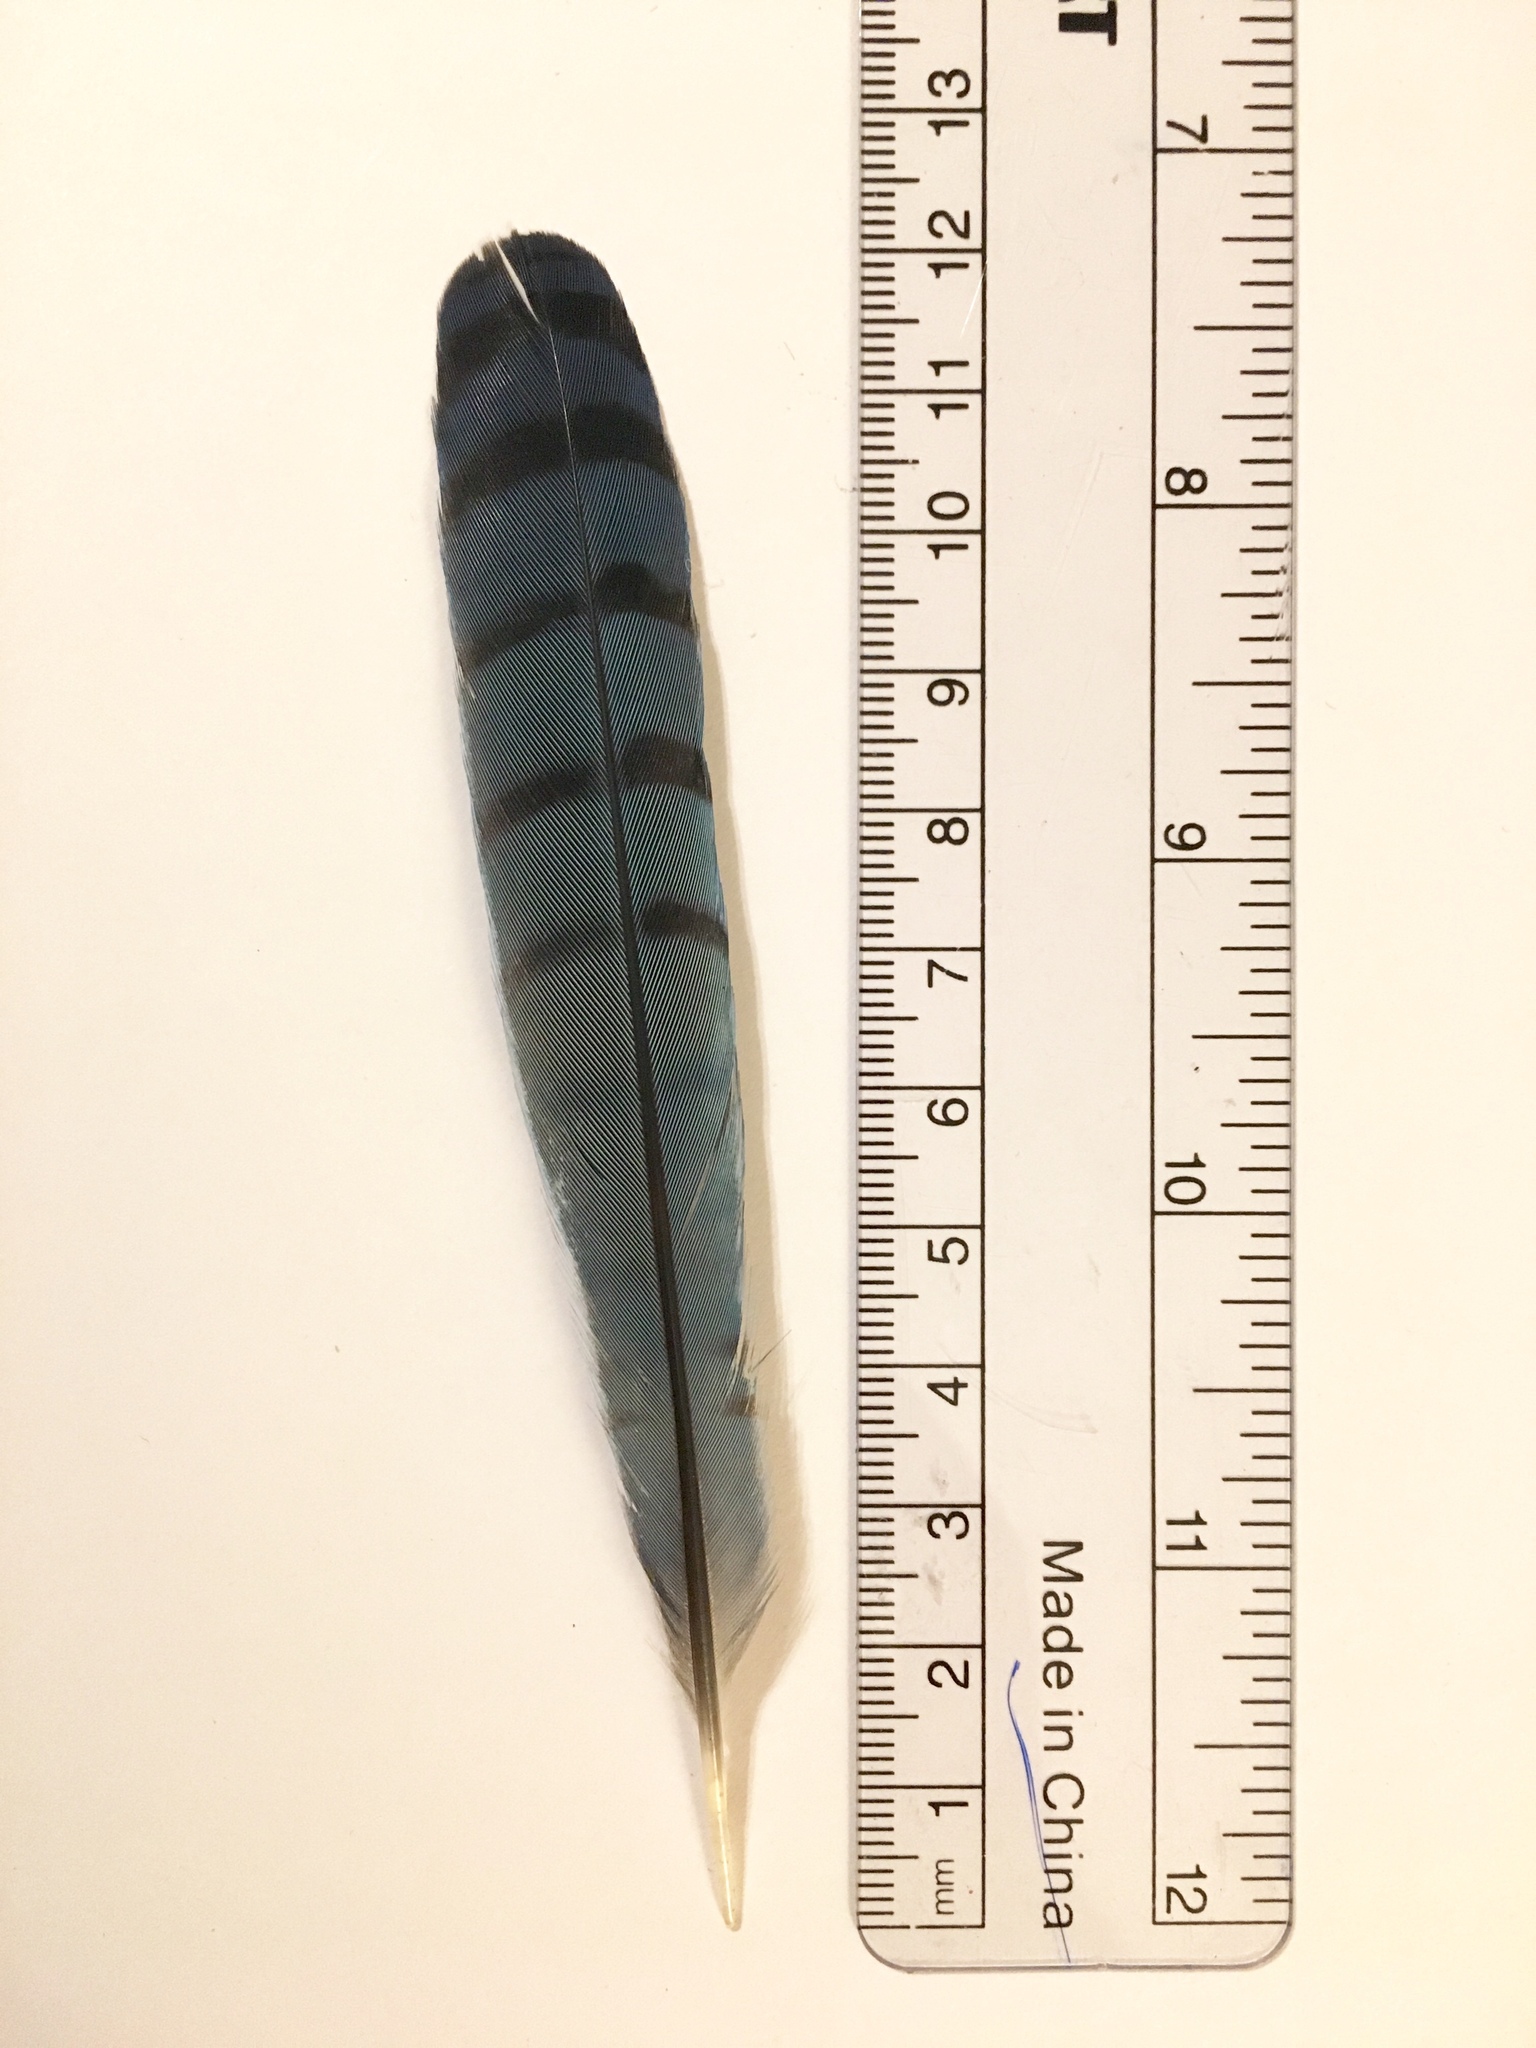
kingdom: Animalia
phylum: Chordata
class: Aves
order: Passeriformes
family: Corvidae
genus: Cyanocitta
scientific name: Cyanocitta cristata
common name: Blue jay
